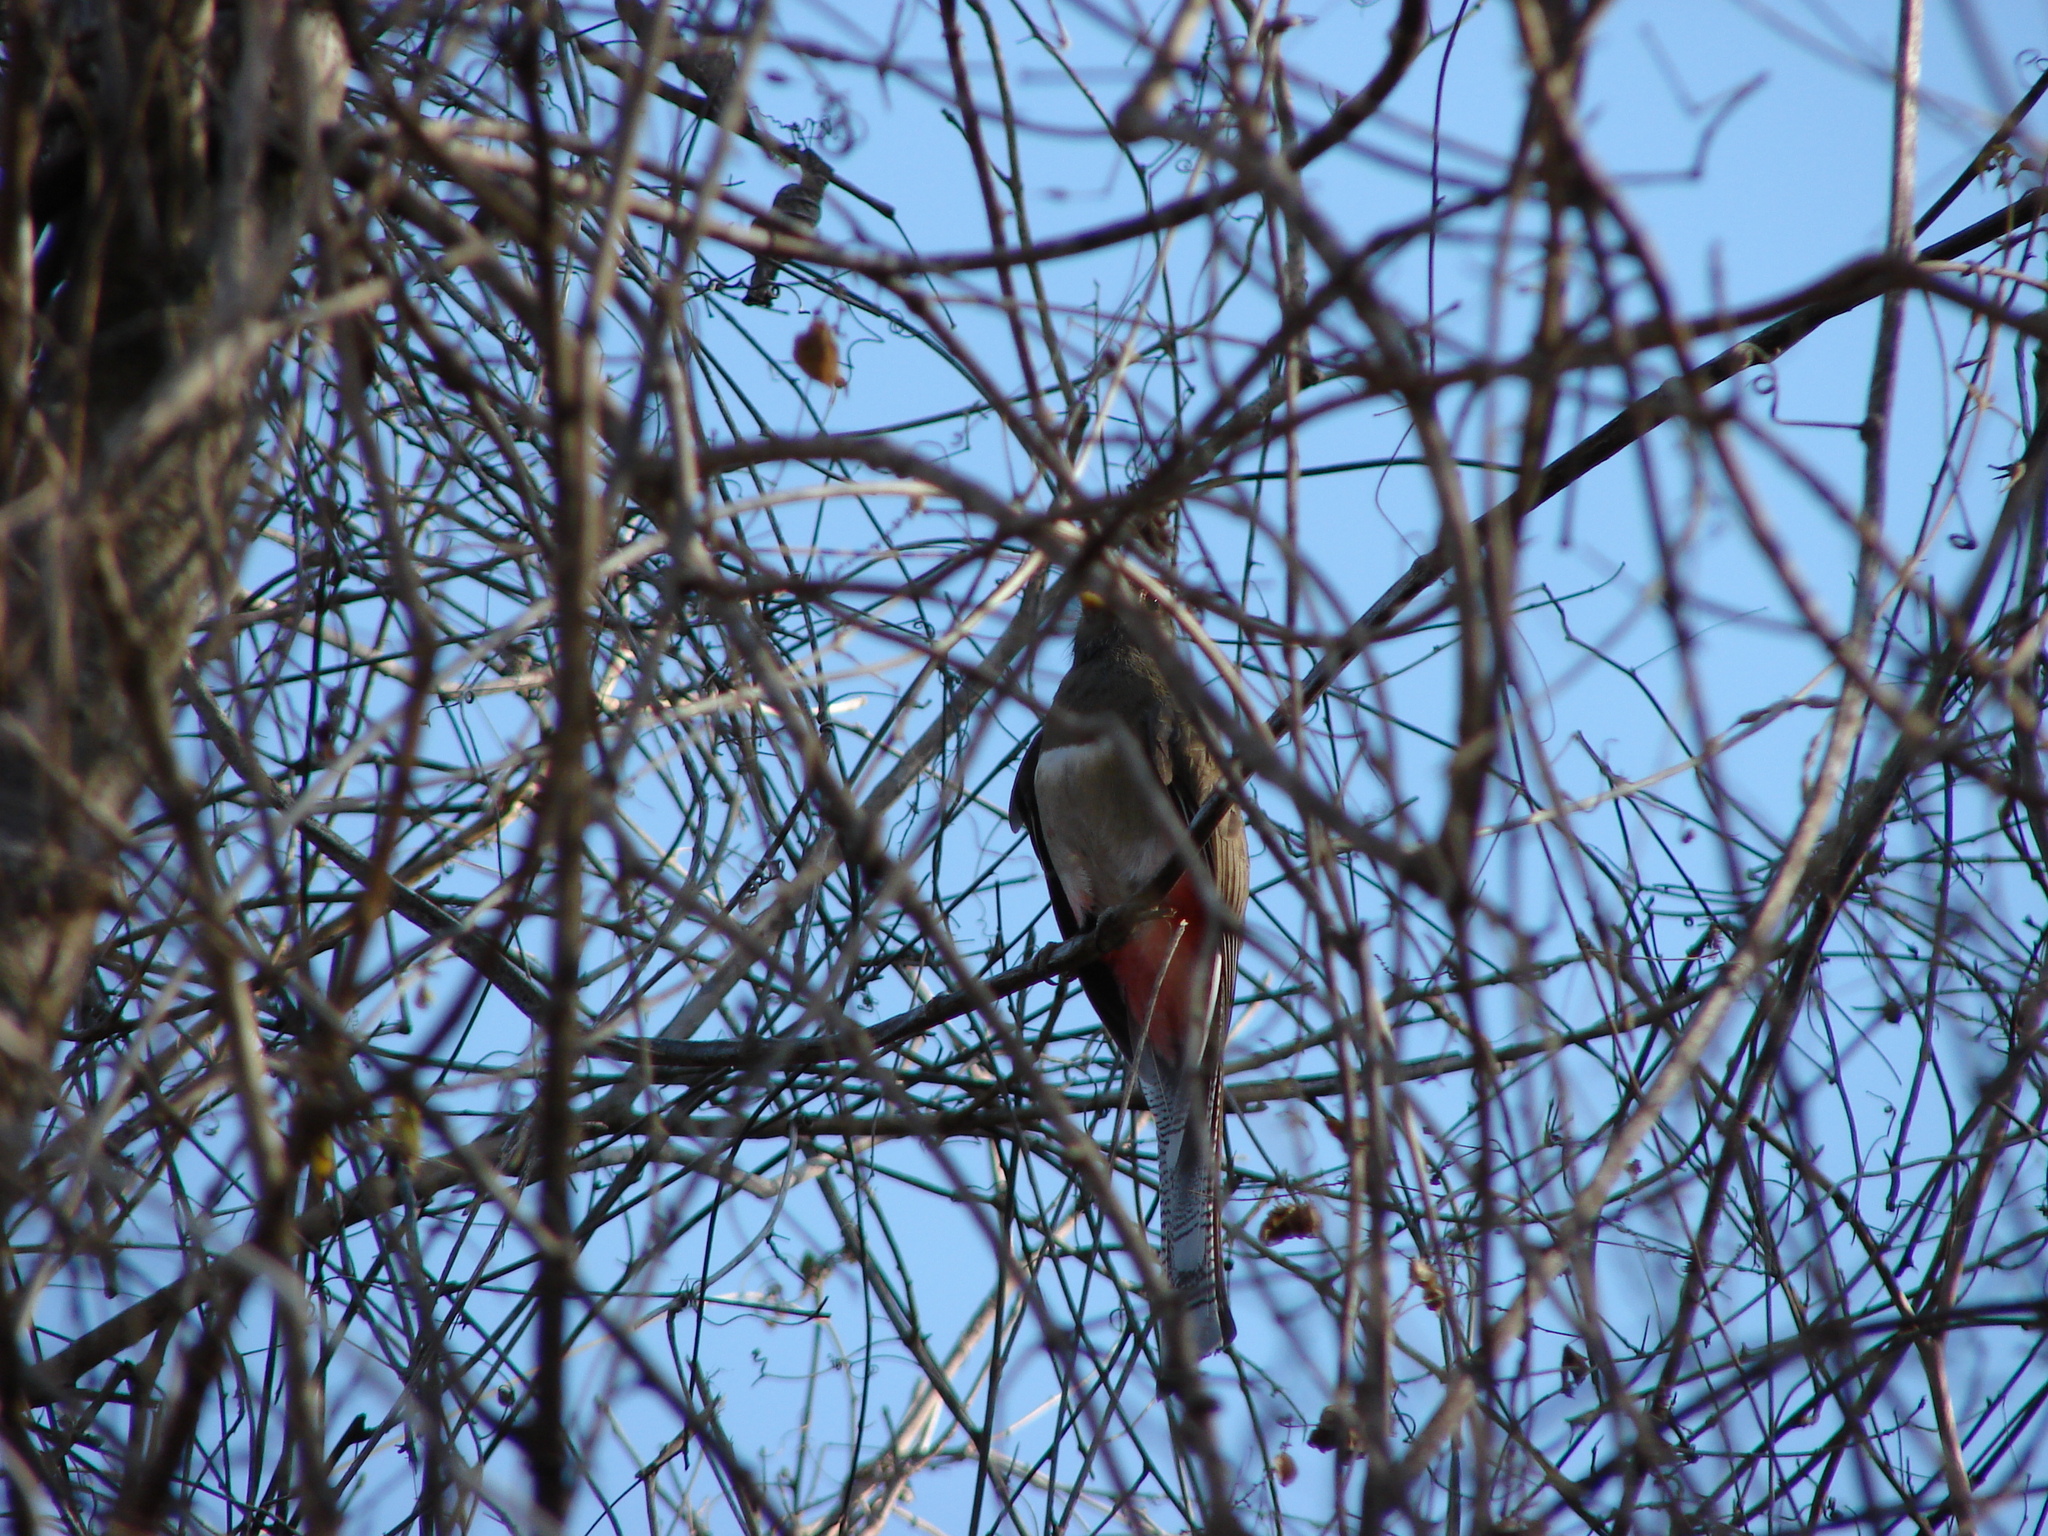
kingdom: Animalia
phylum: Chordata
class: Aves
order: Trogoniformes
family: Trogonidae
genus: Trogon
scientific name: Trogon elegans
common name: Elegant trogon
